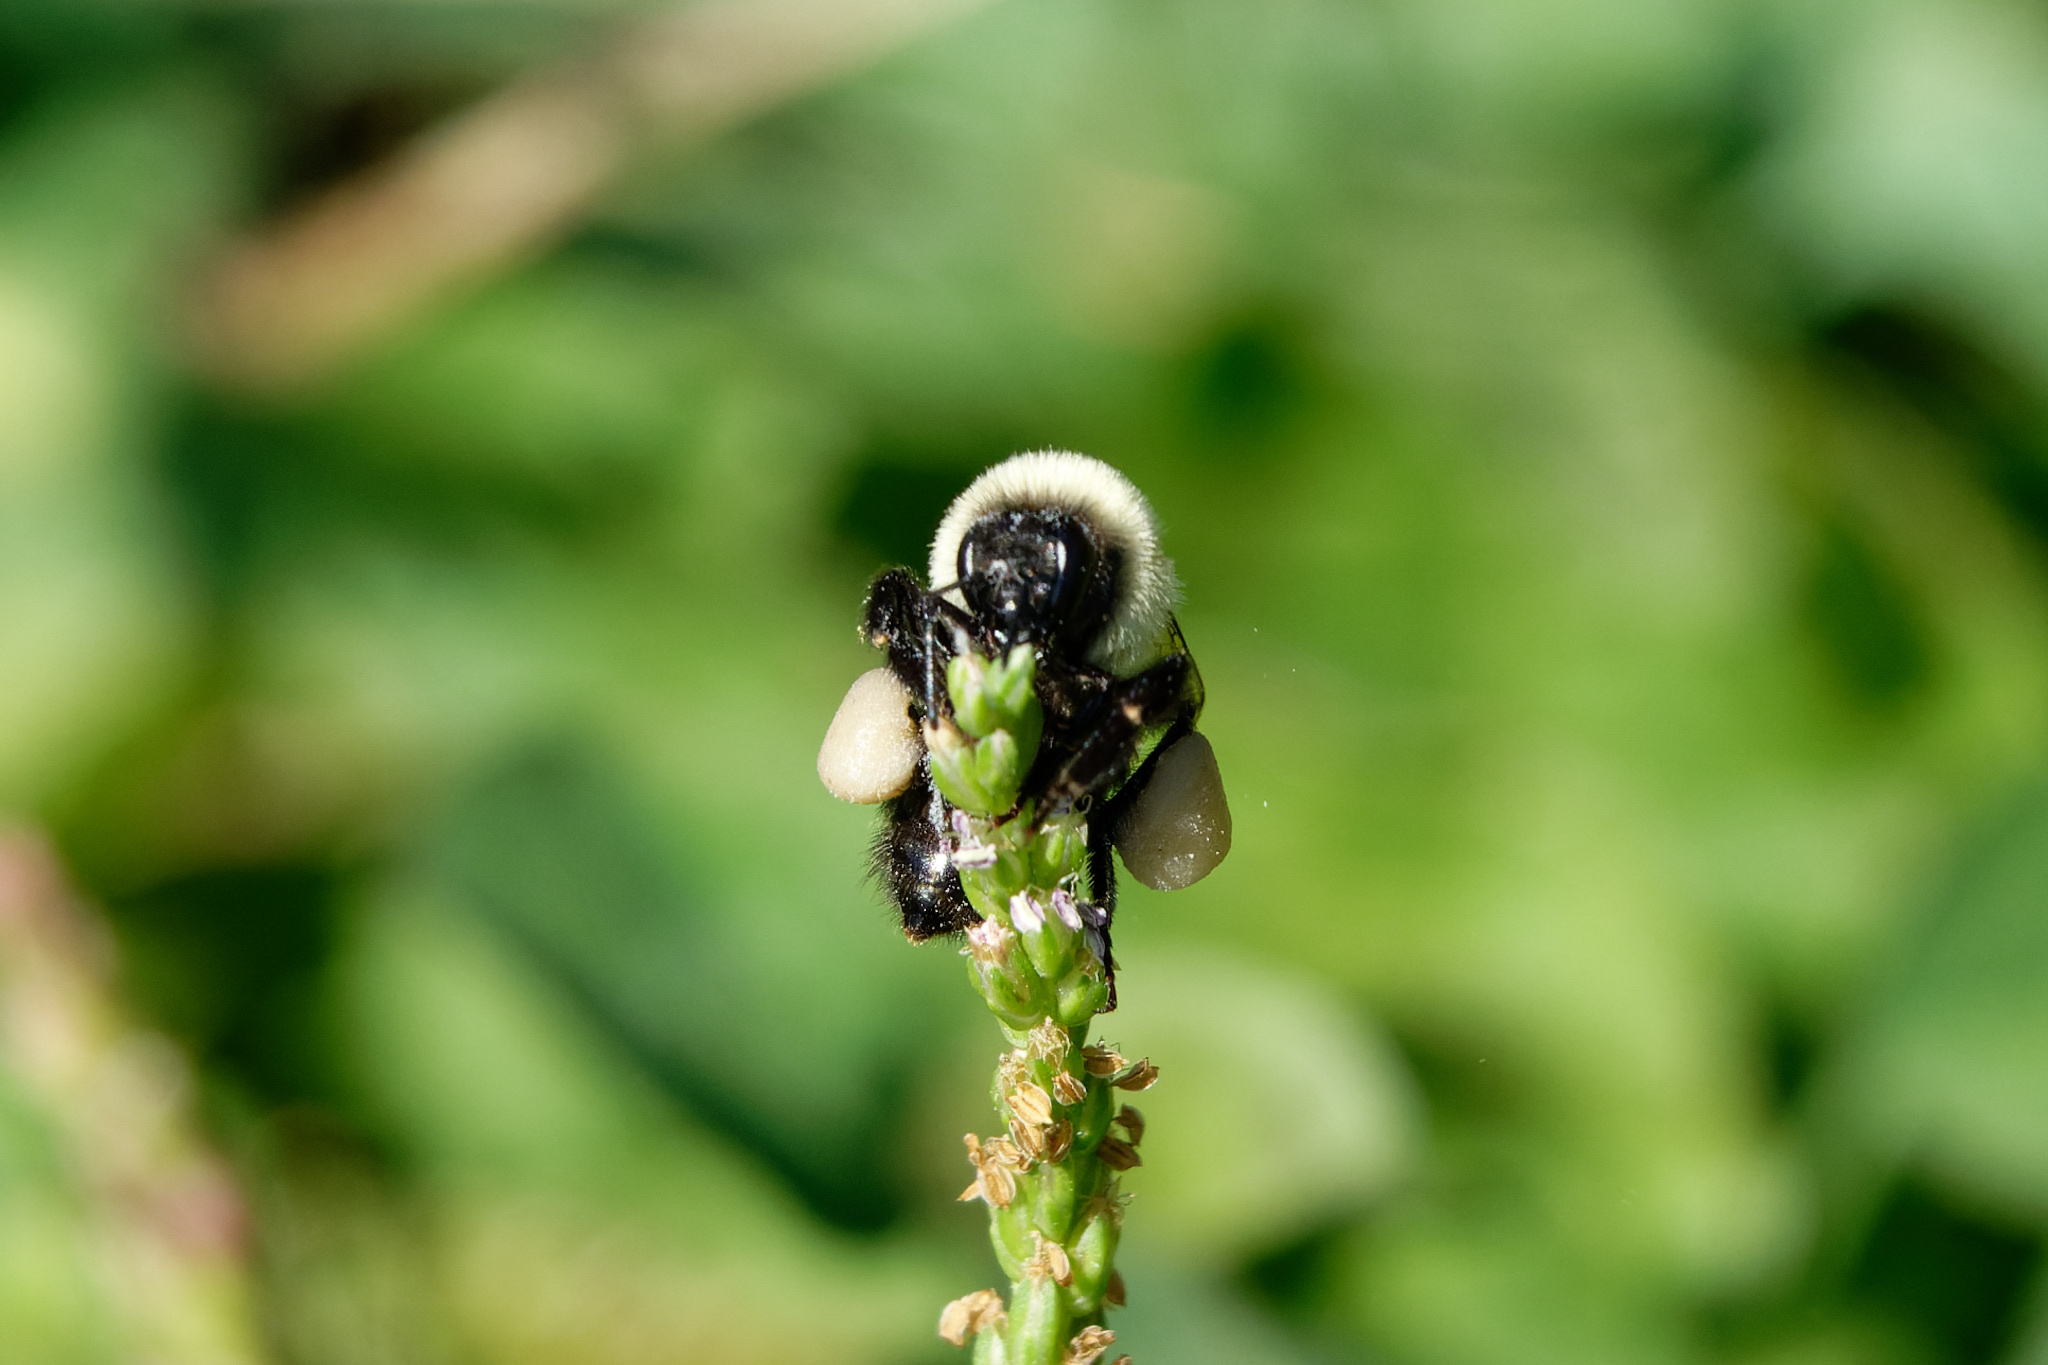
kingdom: Animalia
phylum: Arthropoda
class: Insecta
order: Hymenoptera
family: Apidae
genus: Bombus
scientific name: Bombus impatiens
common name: Common eastern bumble bee
